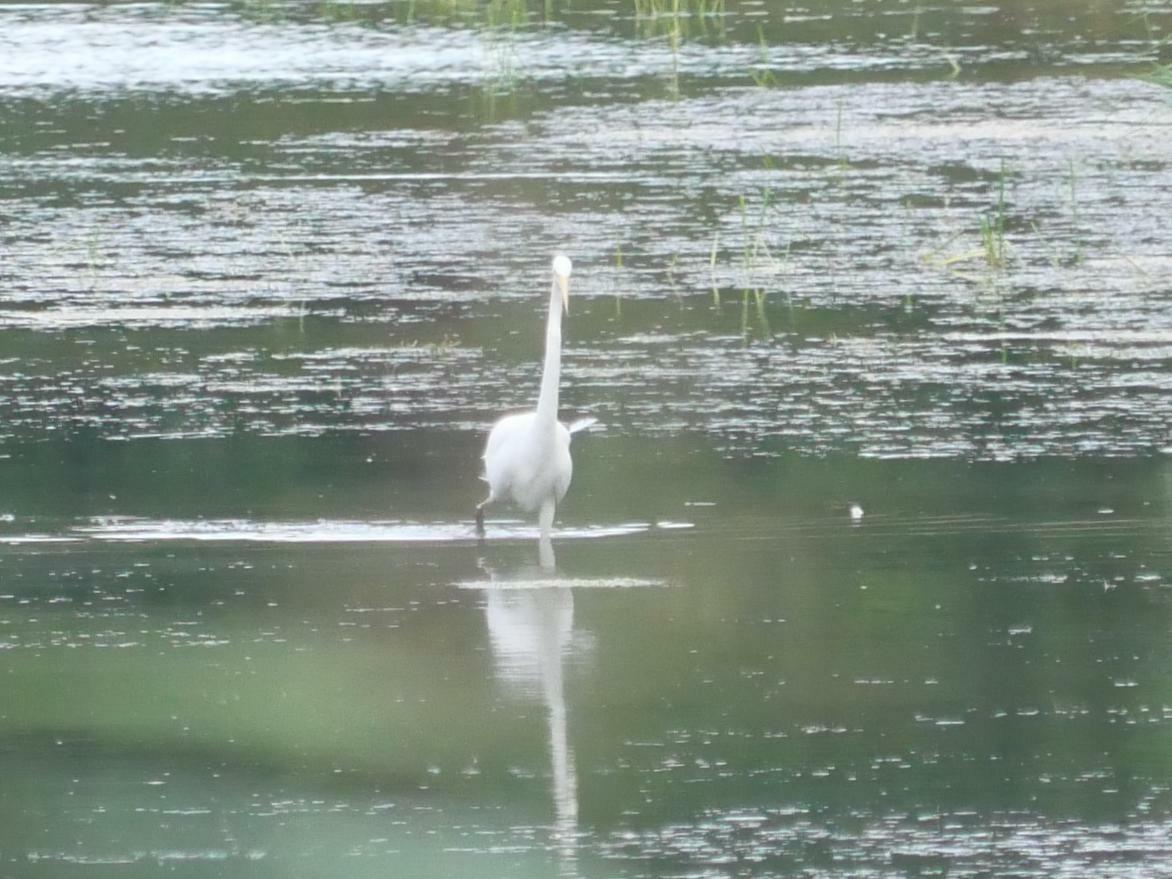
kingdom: Animalia
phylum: Chordata
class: Aves
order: Pelecaniformes
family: Ardeidae
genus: Ardea
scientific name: Ardea alba
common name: Great egret
